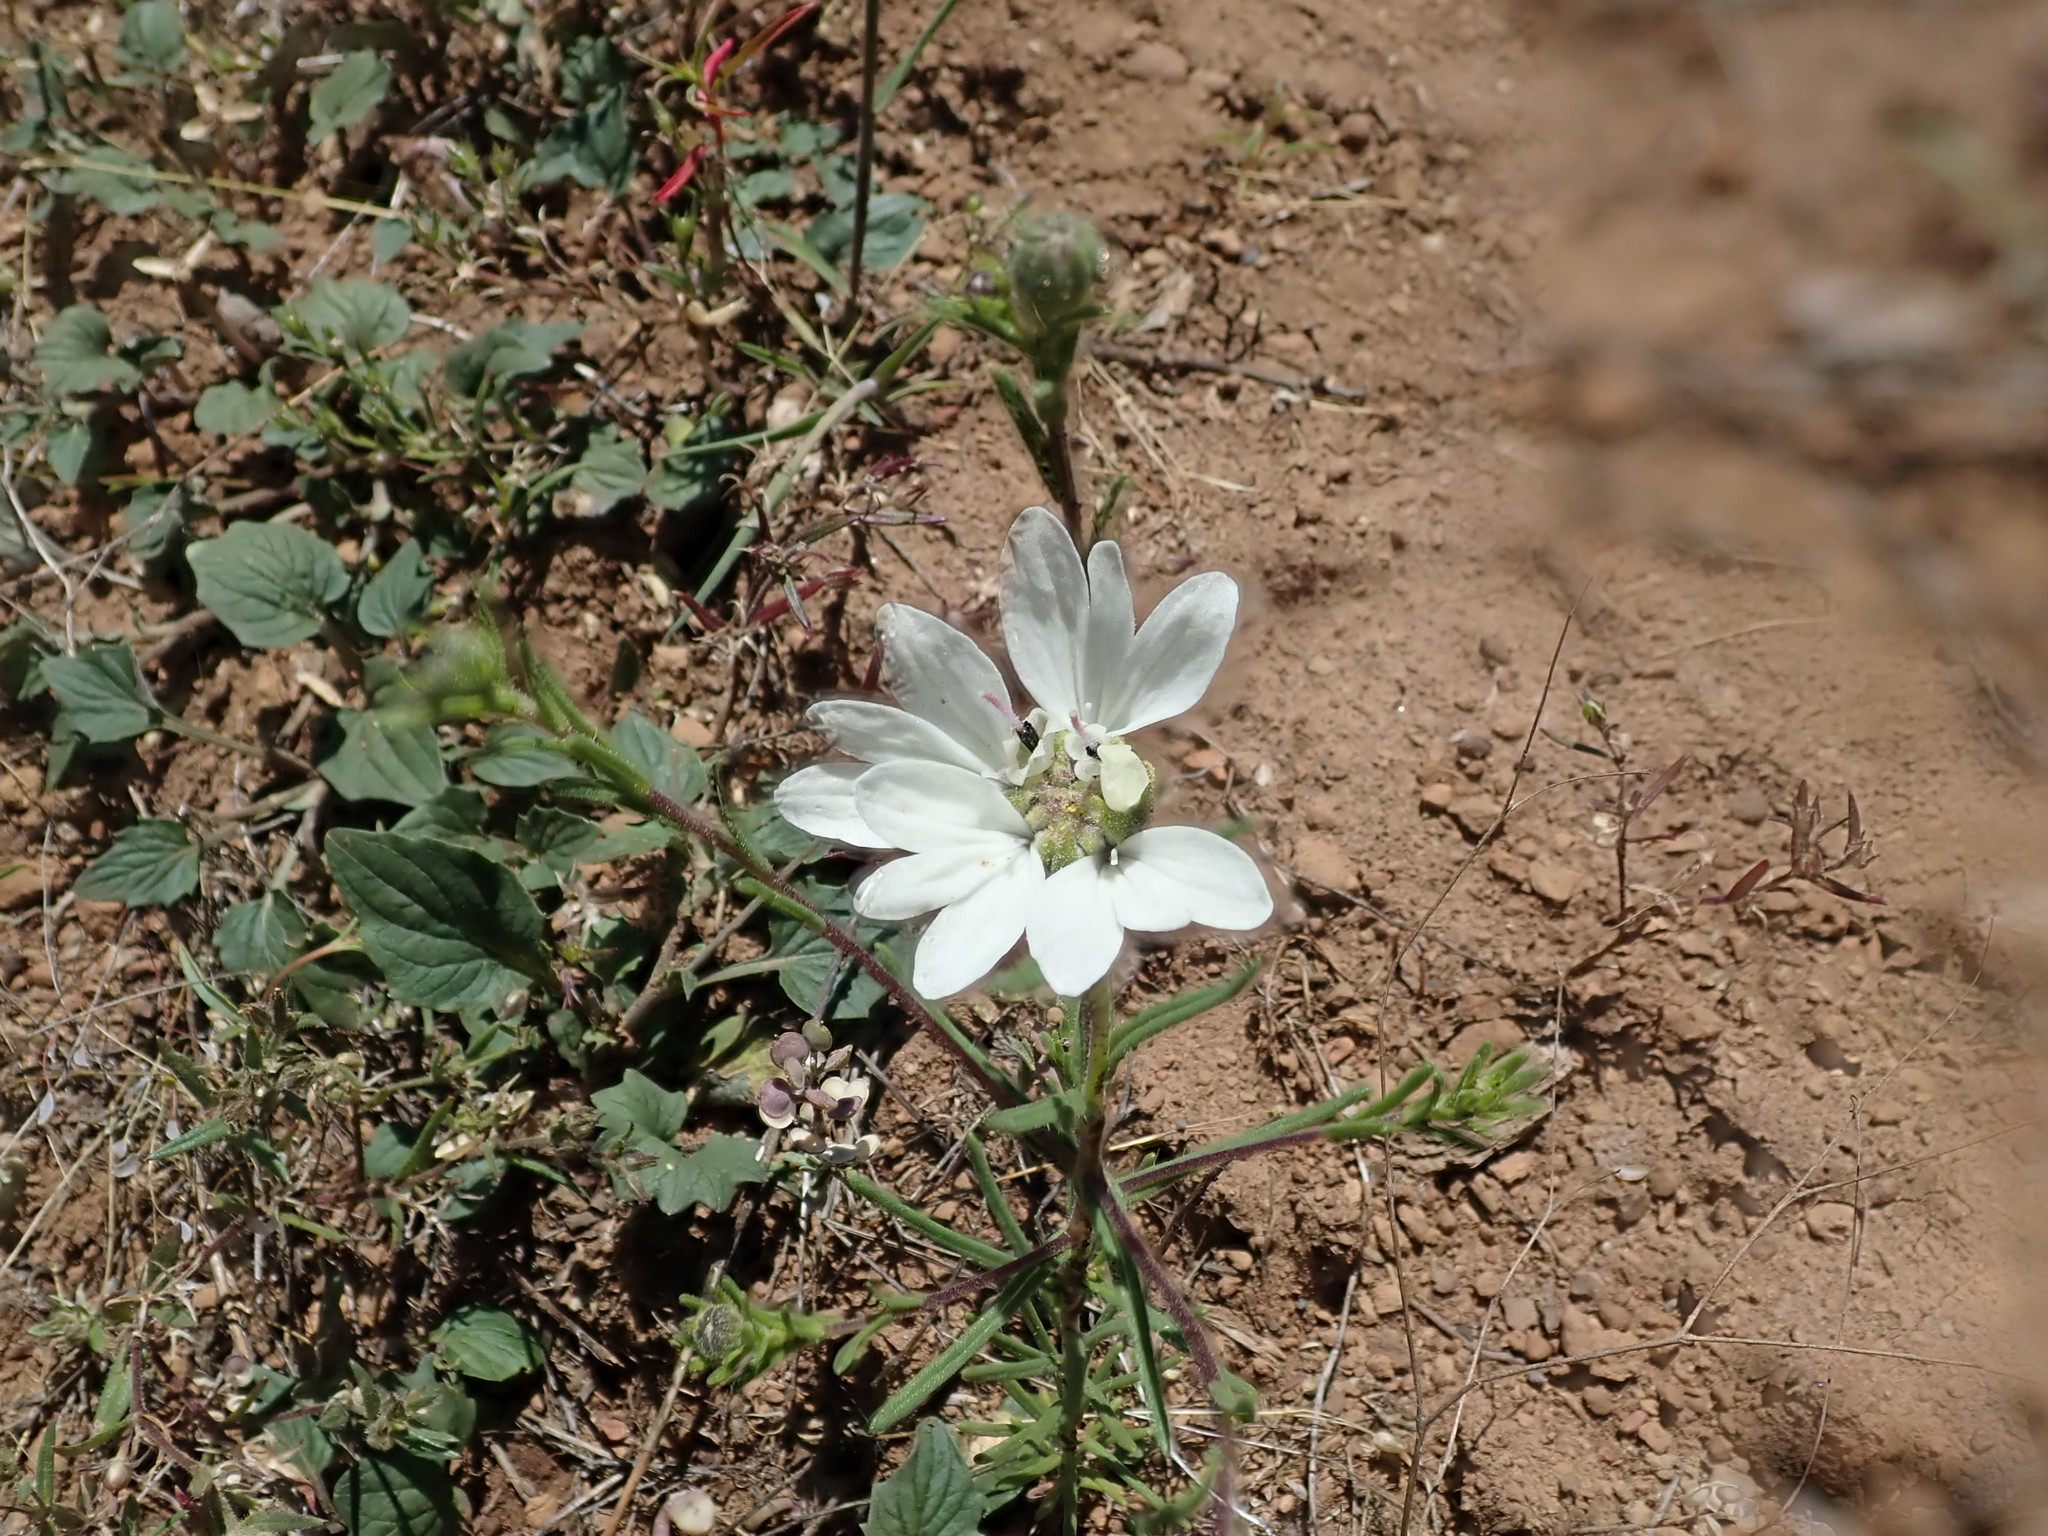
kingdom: Plantae
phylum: Tracheophyta
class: Magnoliopsida
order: Asterales
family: Asteraceae
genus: Blepharipappus
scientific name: Blepharipappus scaber
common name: Rough blepharipappus
